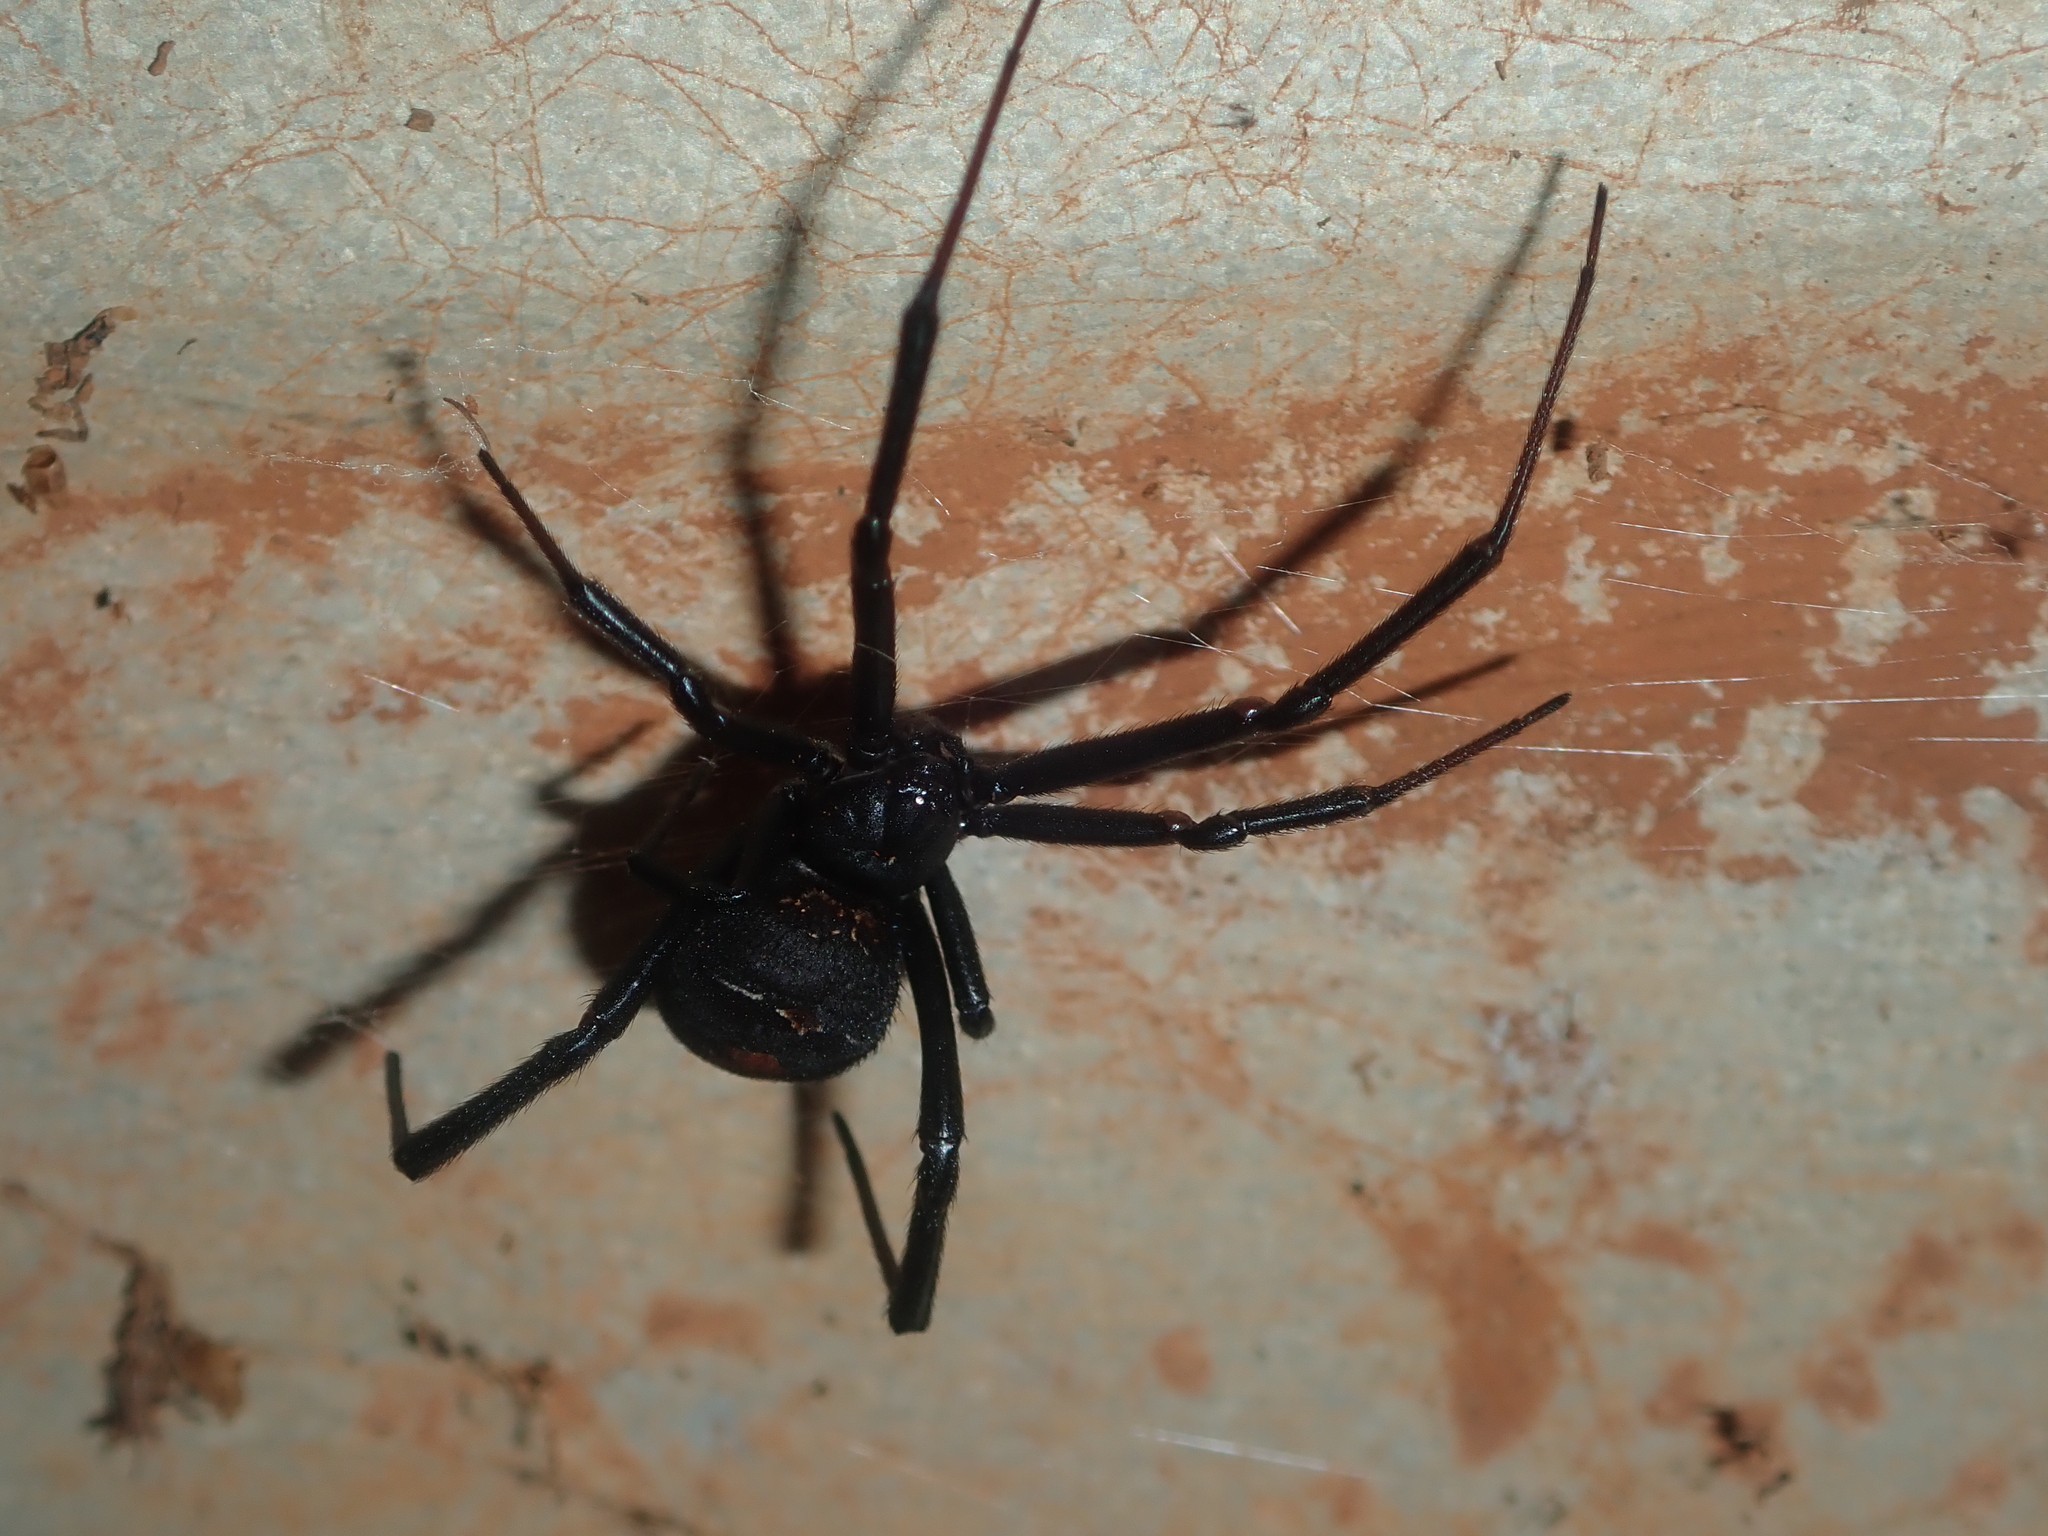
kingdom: Animalia
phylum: Arthropoda
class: Arachnida
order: Araneae
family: Theridiidae
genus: Latrodectus
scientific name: Latrodectus hasselti
